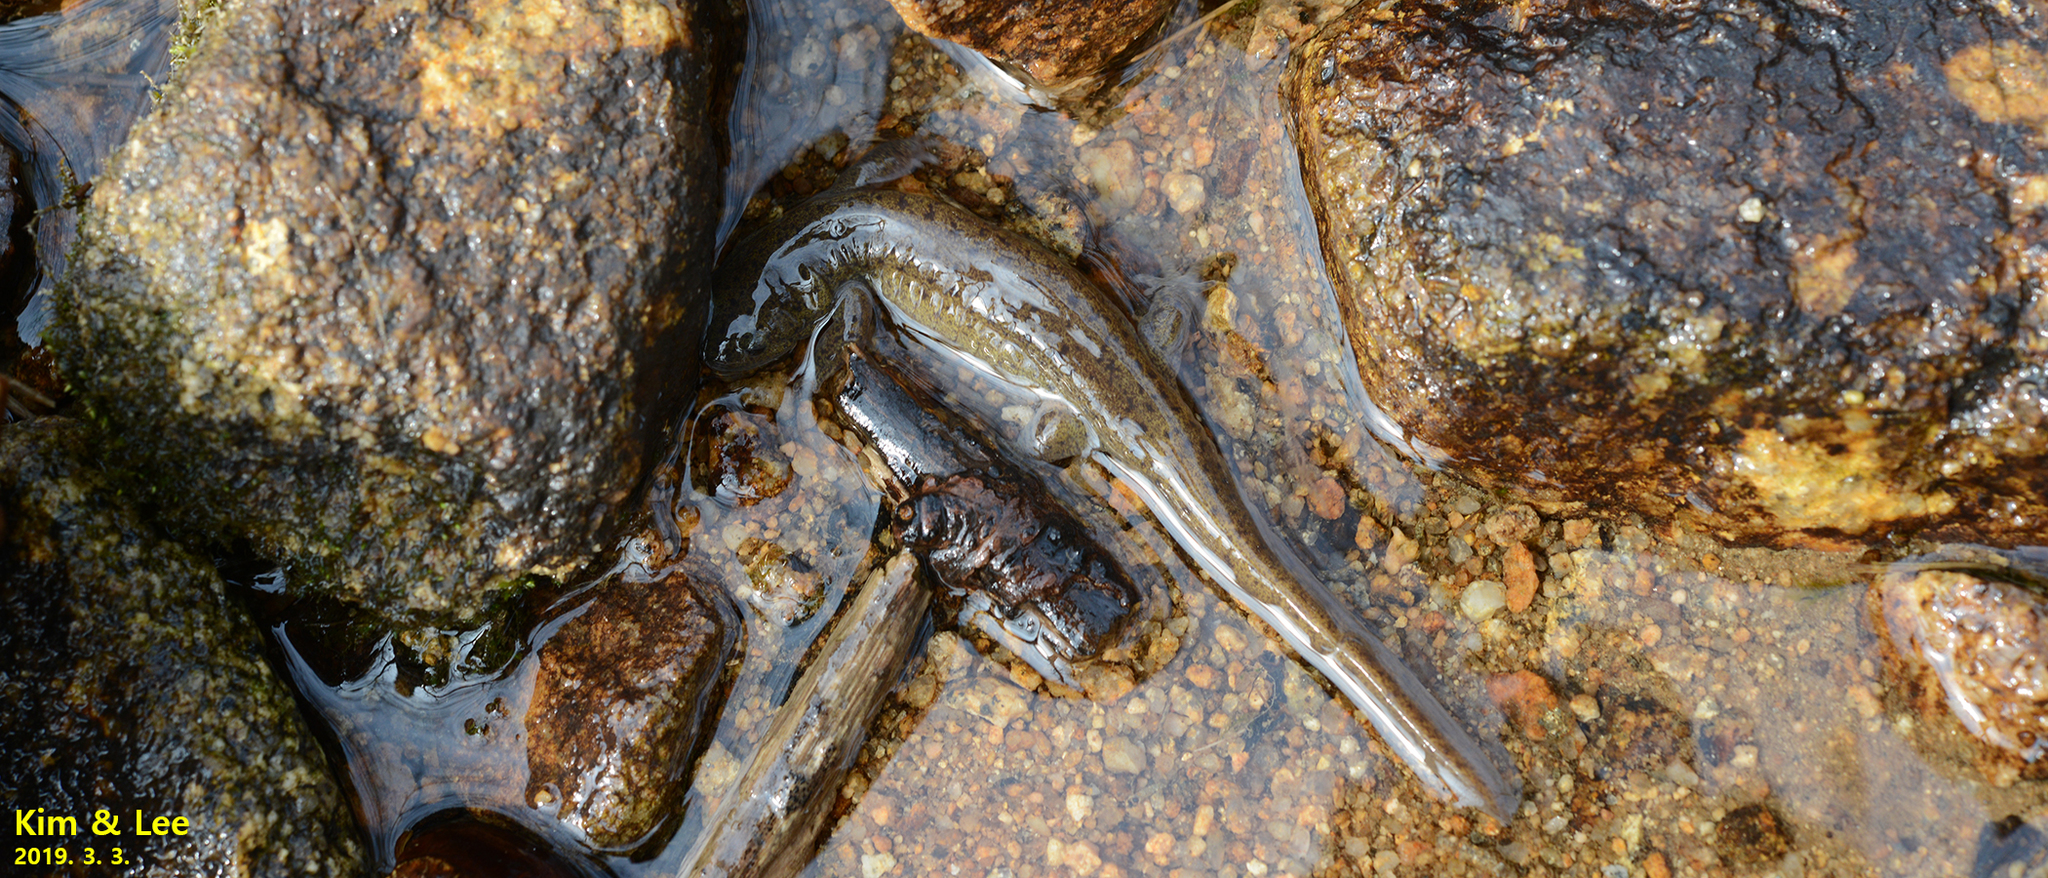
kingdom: Animalia
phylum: Chordata
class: Amphibia
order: Caudata
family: Hynobiidae
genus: Hynobius
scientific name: Hynobius perplicatus
